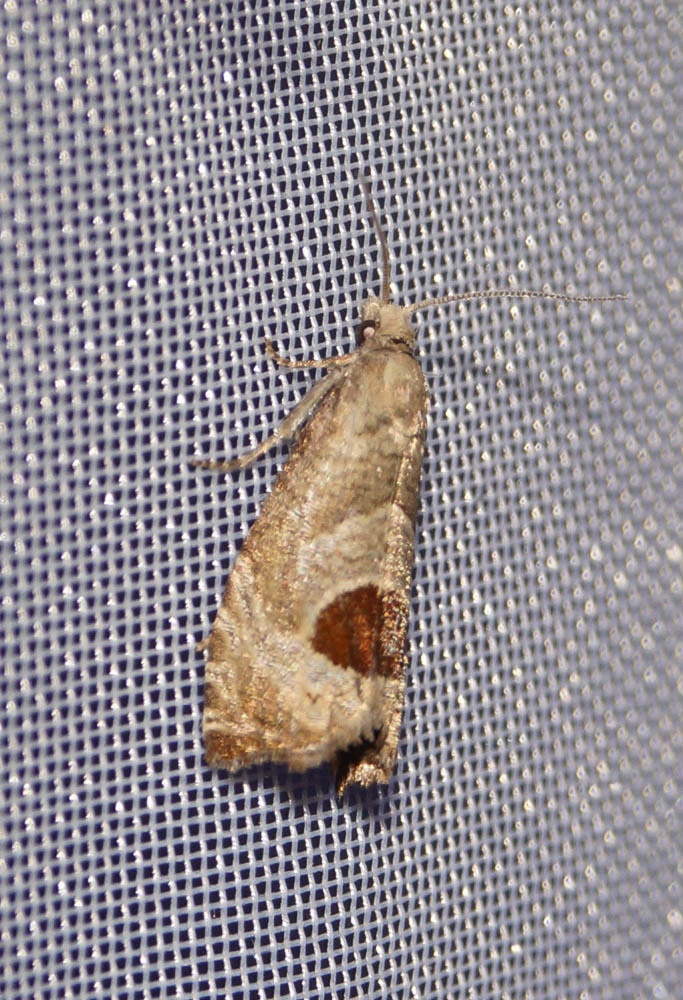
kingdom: Animalia
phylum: Arthropoda
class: Insecta
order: Lepidoptera
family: Tortricidae
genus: Notocelia
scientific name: Notocelia uddmanniana
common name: Bramble shoot moth
